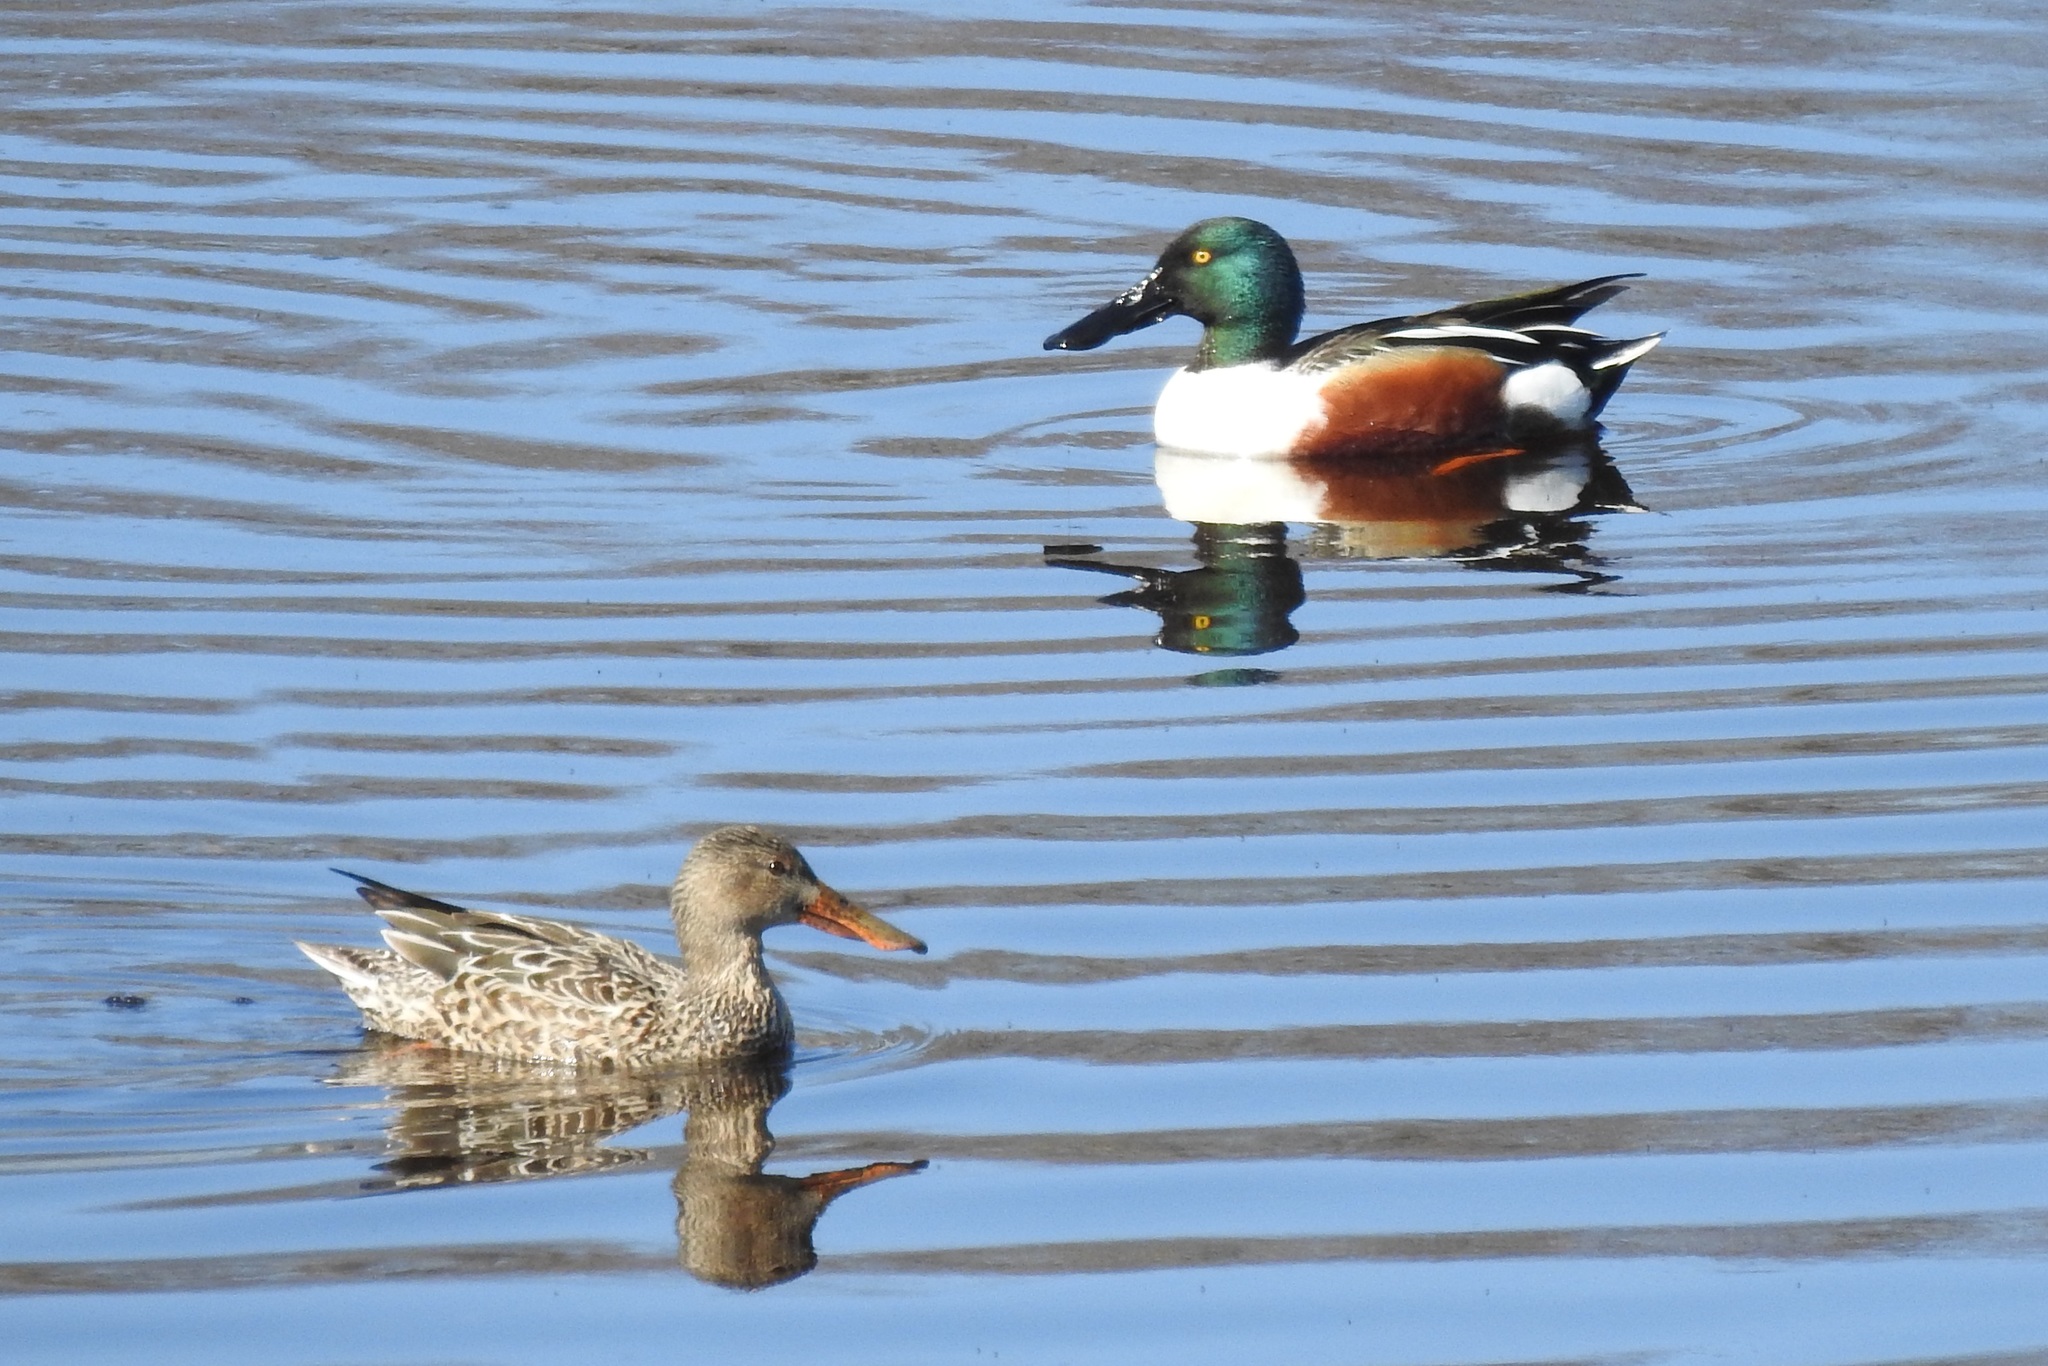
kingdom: Animalia
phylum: Chordata
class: Aves
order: Anseriformes
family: Anatidae
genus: Spatula
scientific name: Spatula clypeata
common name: Northern shoveler
